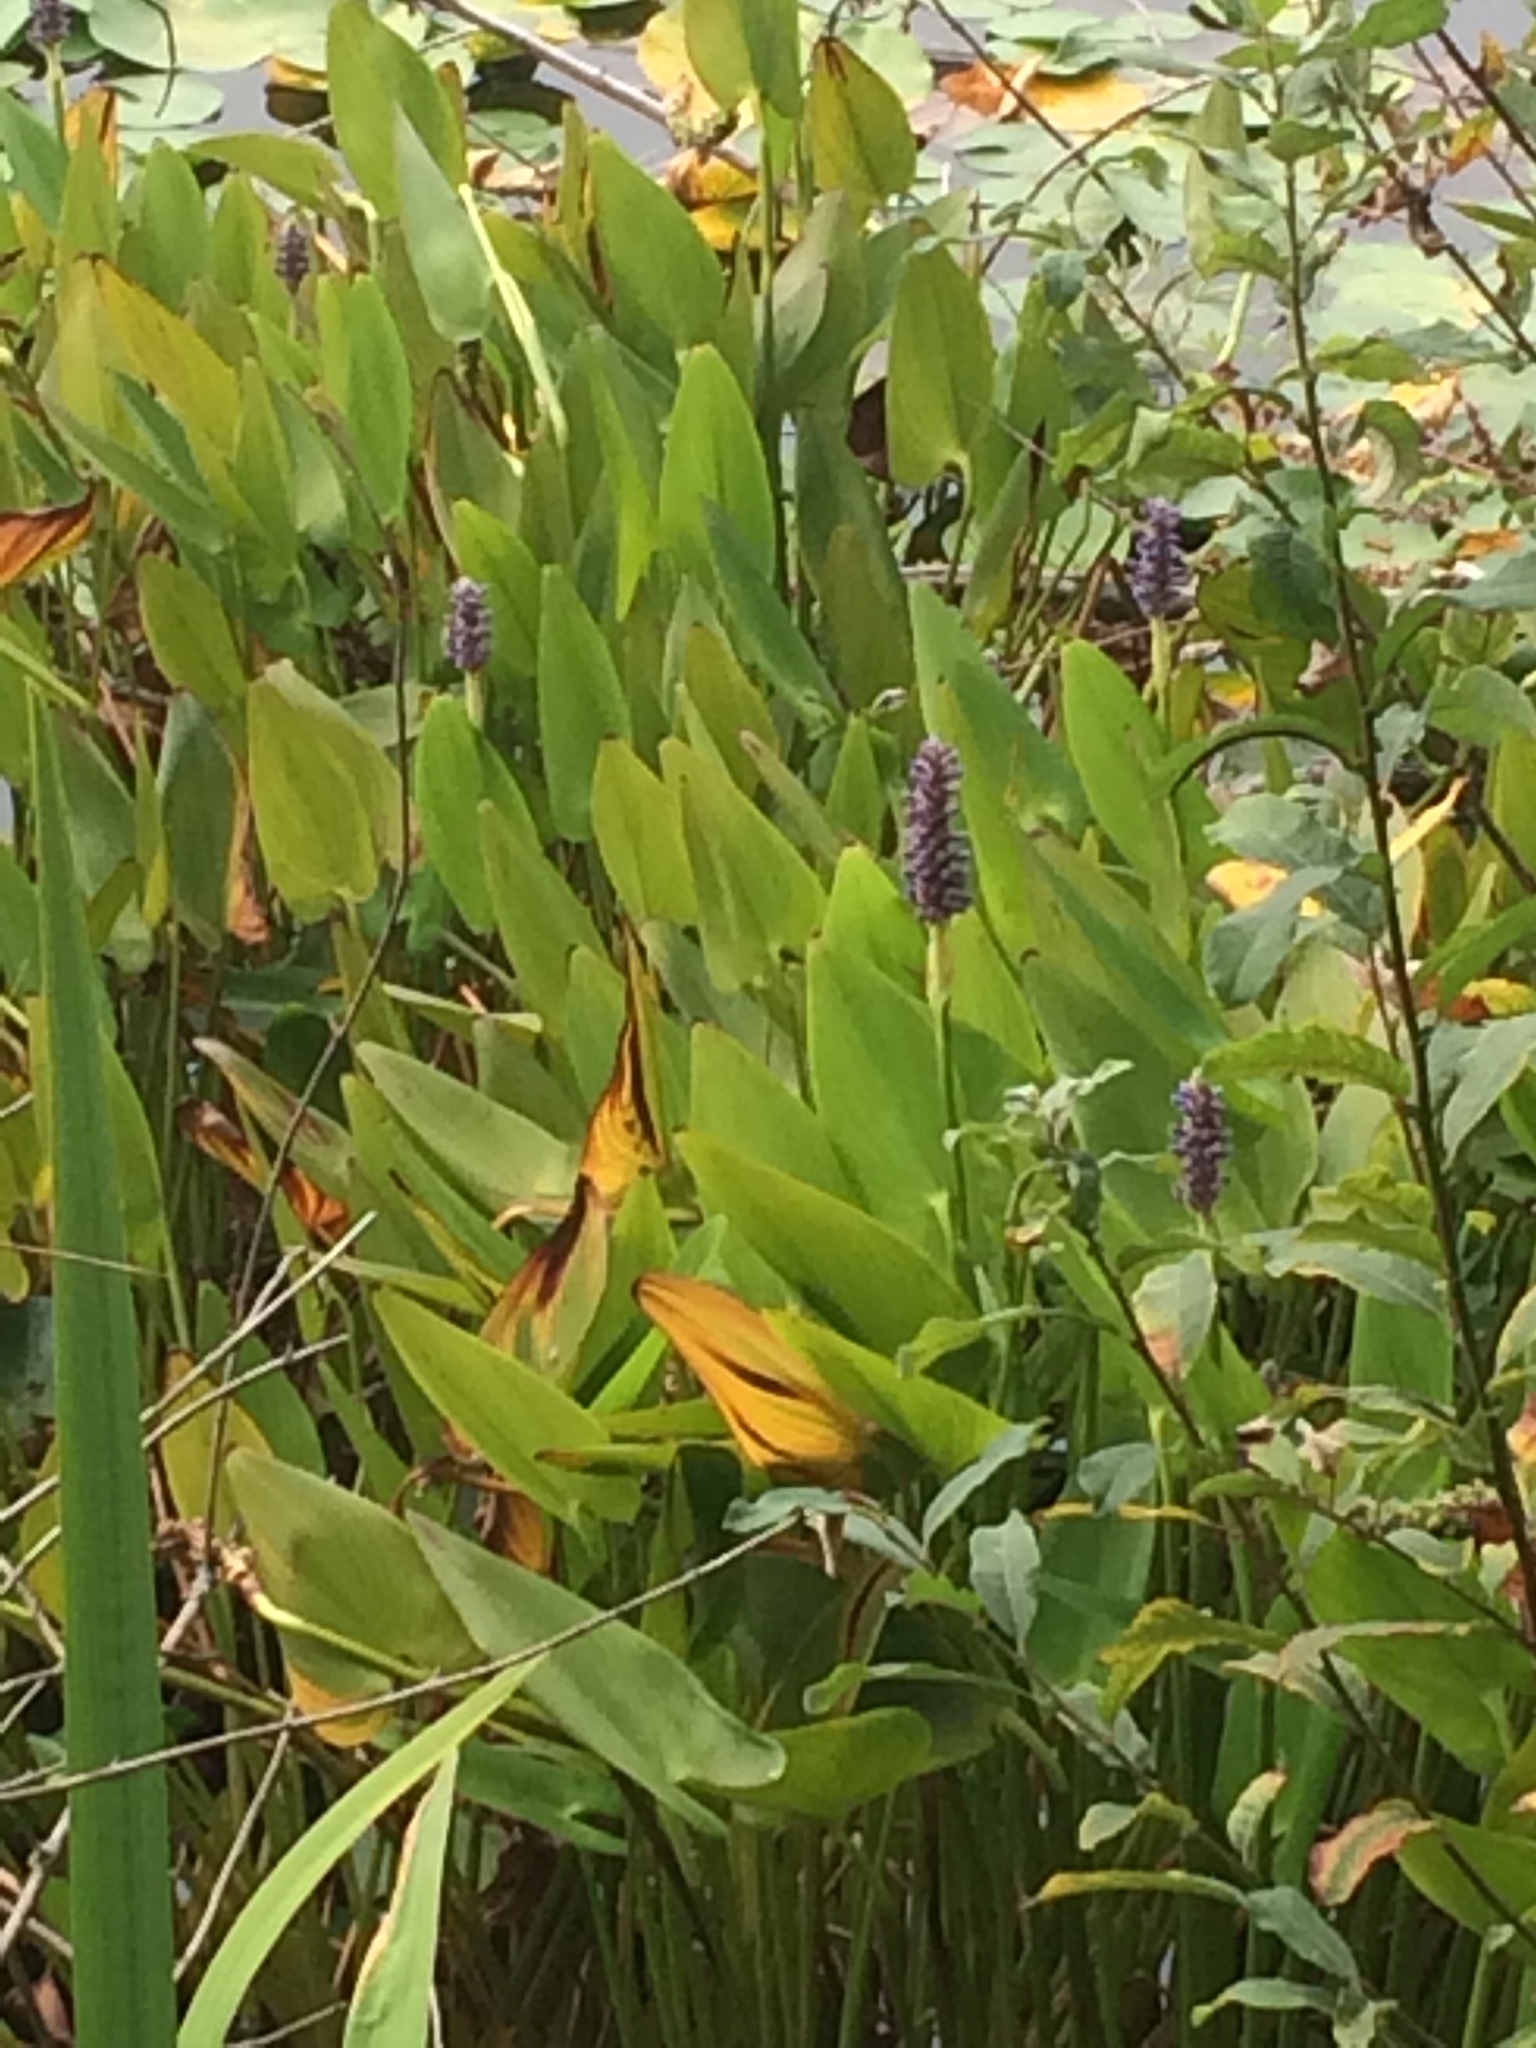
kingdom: Plantae
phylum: Tracheophyta
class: Liliopsida
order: Commelinales
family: Pontederiaceae
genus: Pontederia
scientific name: Pontederia cordata
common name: Pickerelweed
